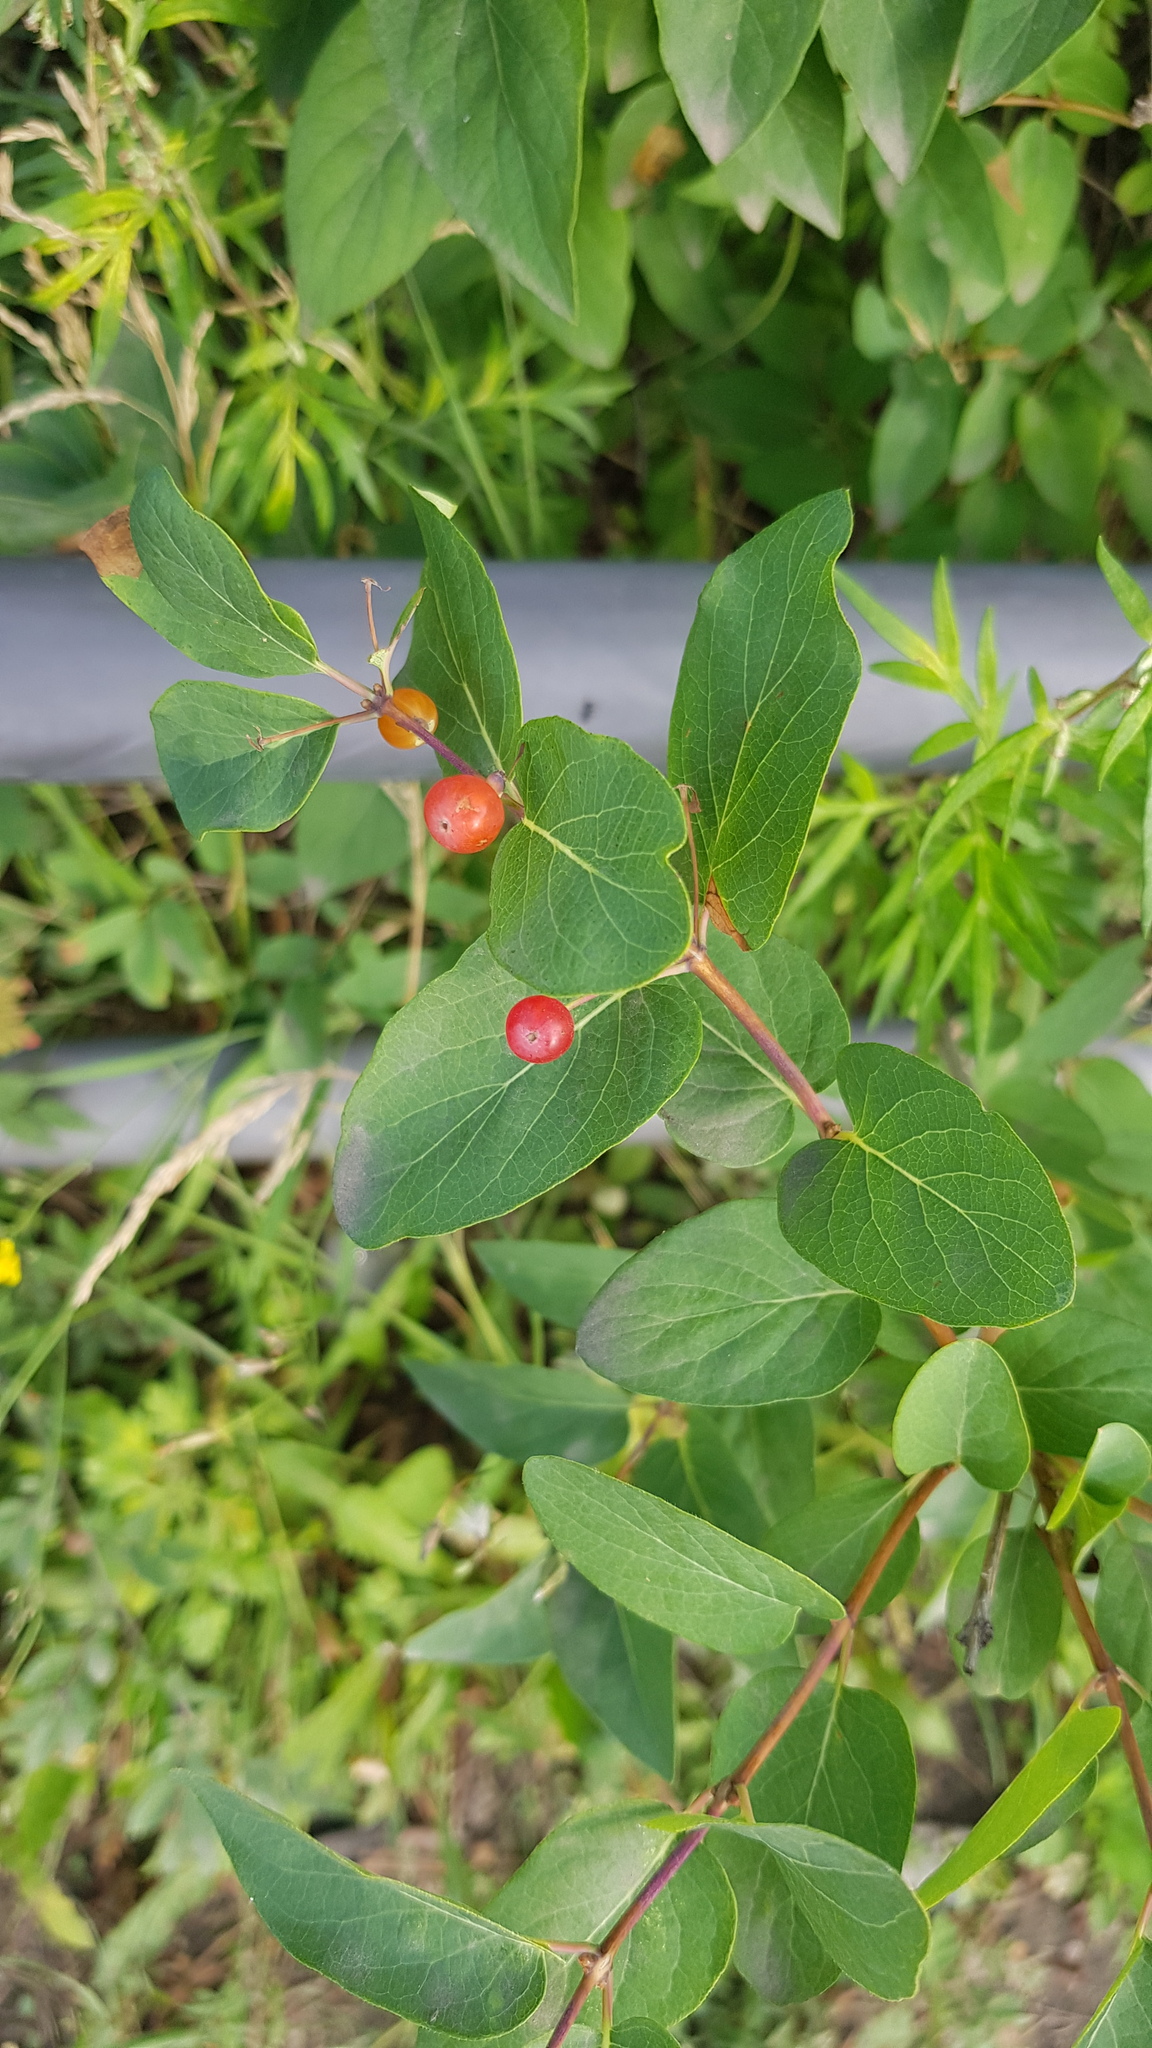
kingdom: Plantae
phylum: Tracheophyta
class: Magnoliopsida
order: Dipsacales
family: Caprifoliaceae
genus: Lonicera
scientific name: Lonicera tatarica
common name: Tatarian honeysuckle
